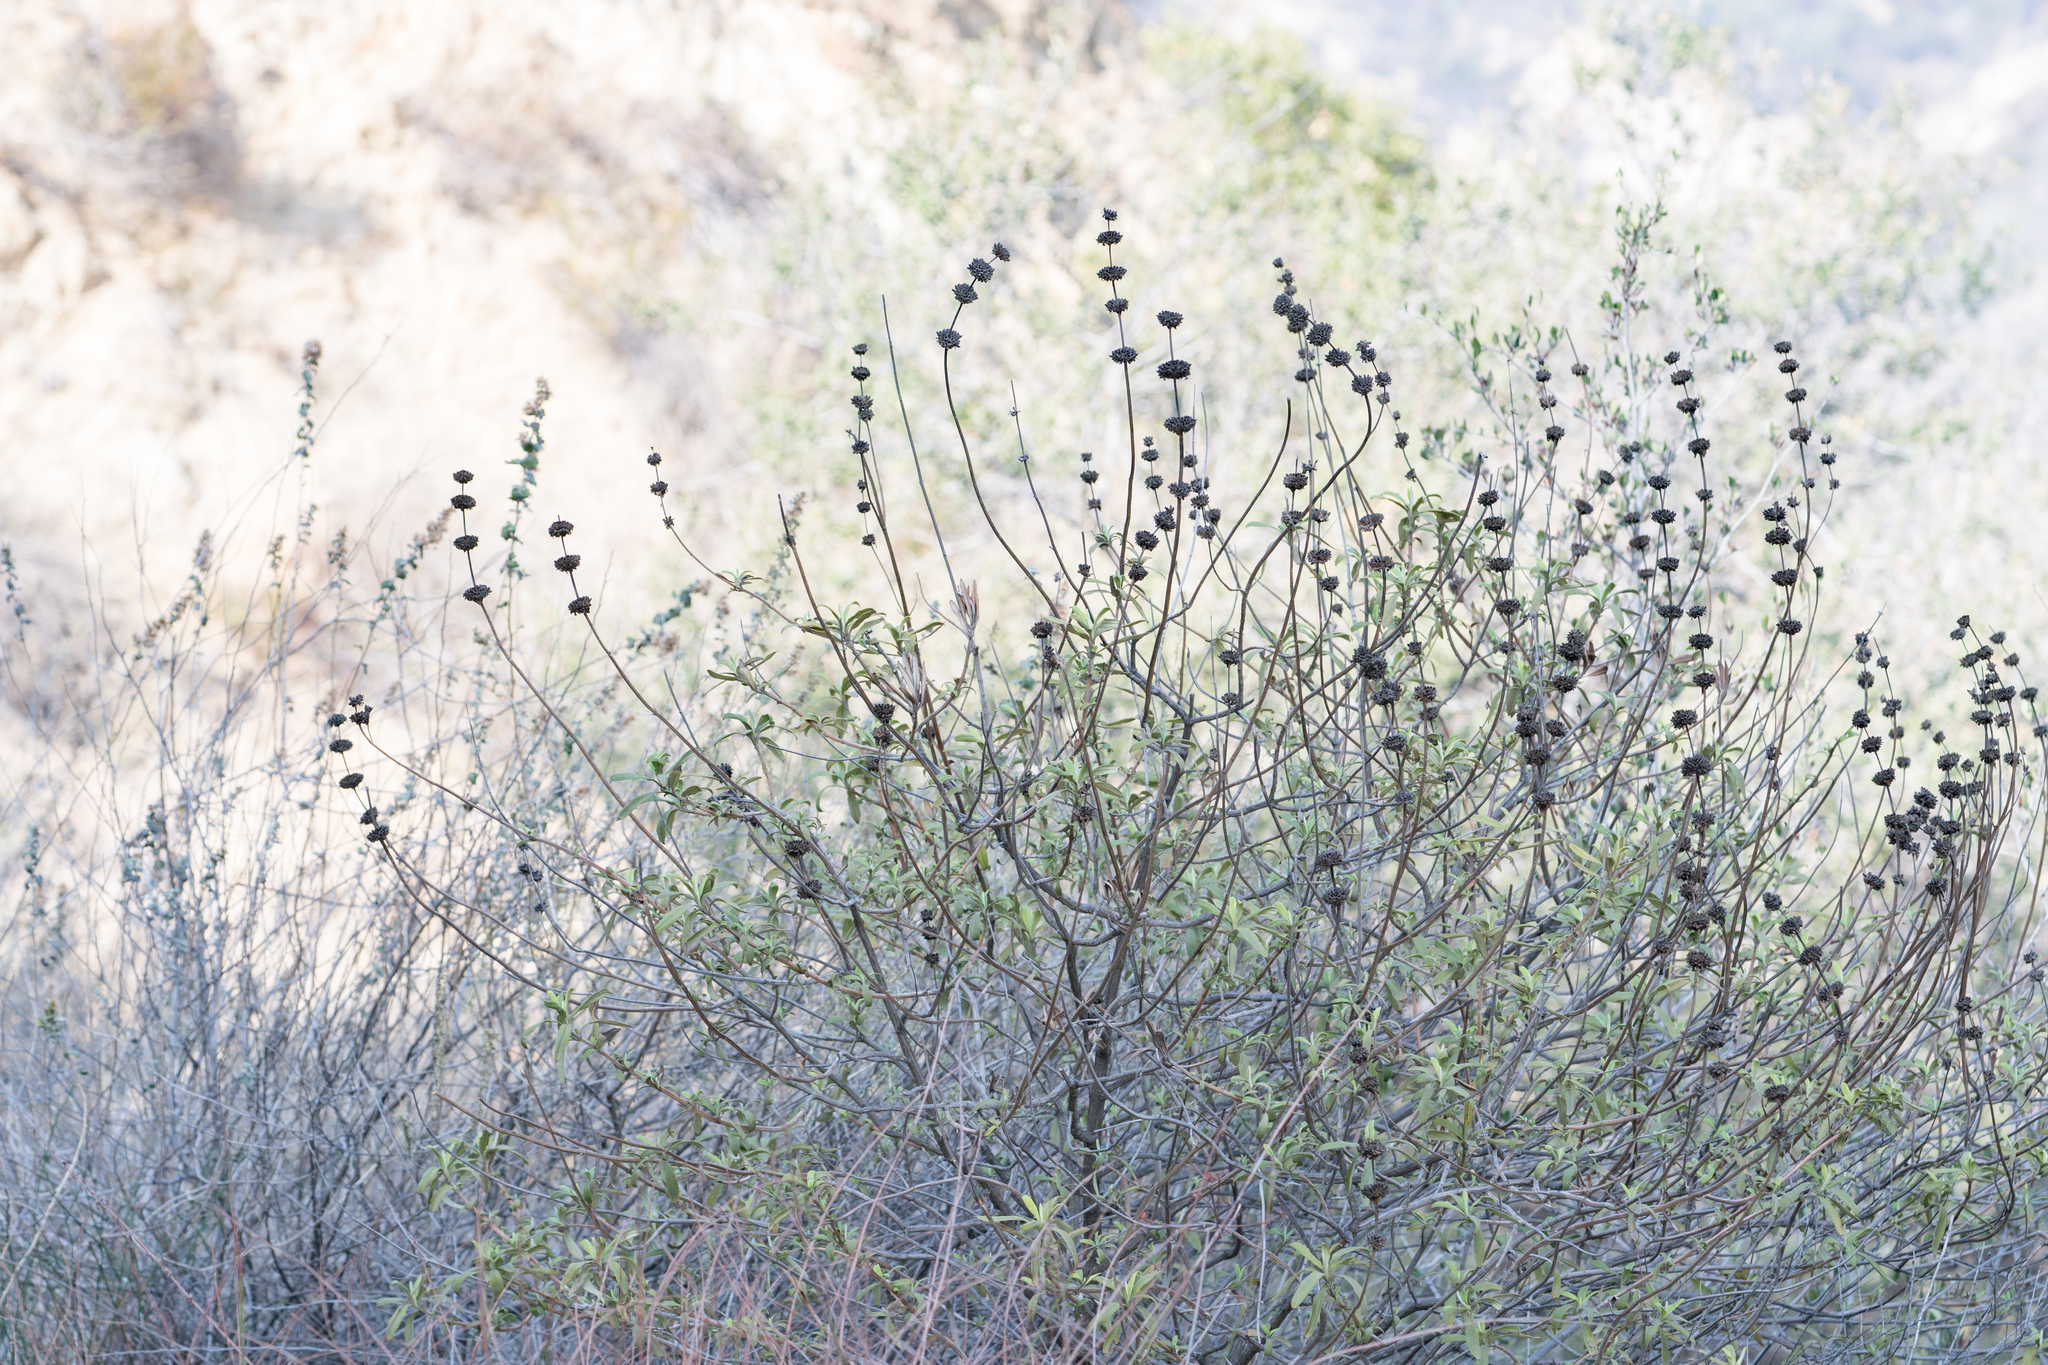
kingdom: Plantae
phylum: Tracheophyta
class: Magnoliopsida
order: Lamiales
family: Lamiaceae
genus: Salvia
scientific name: Salvia mellifera
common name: Black sage
